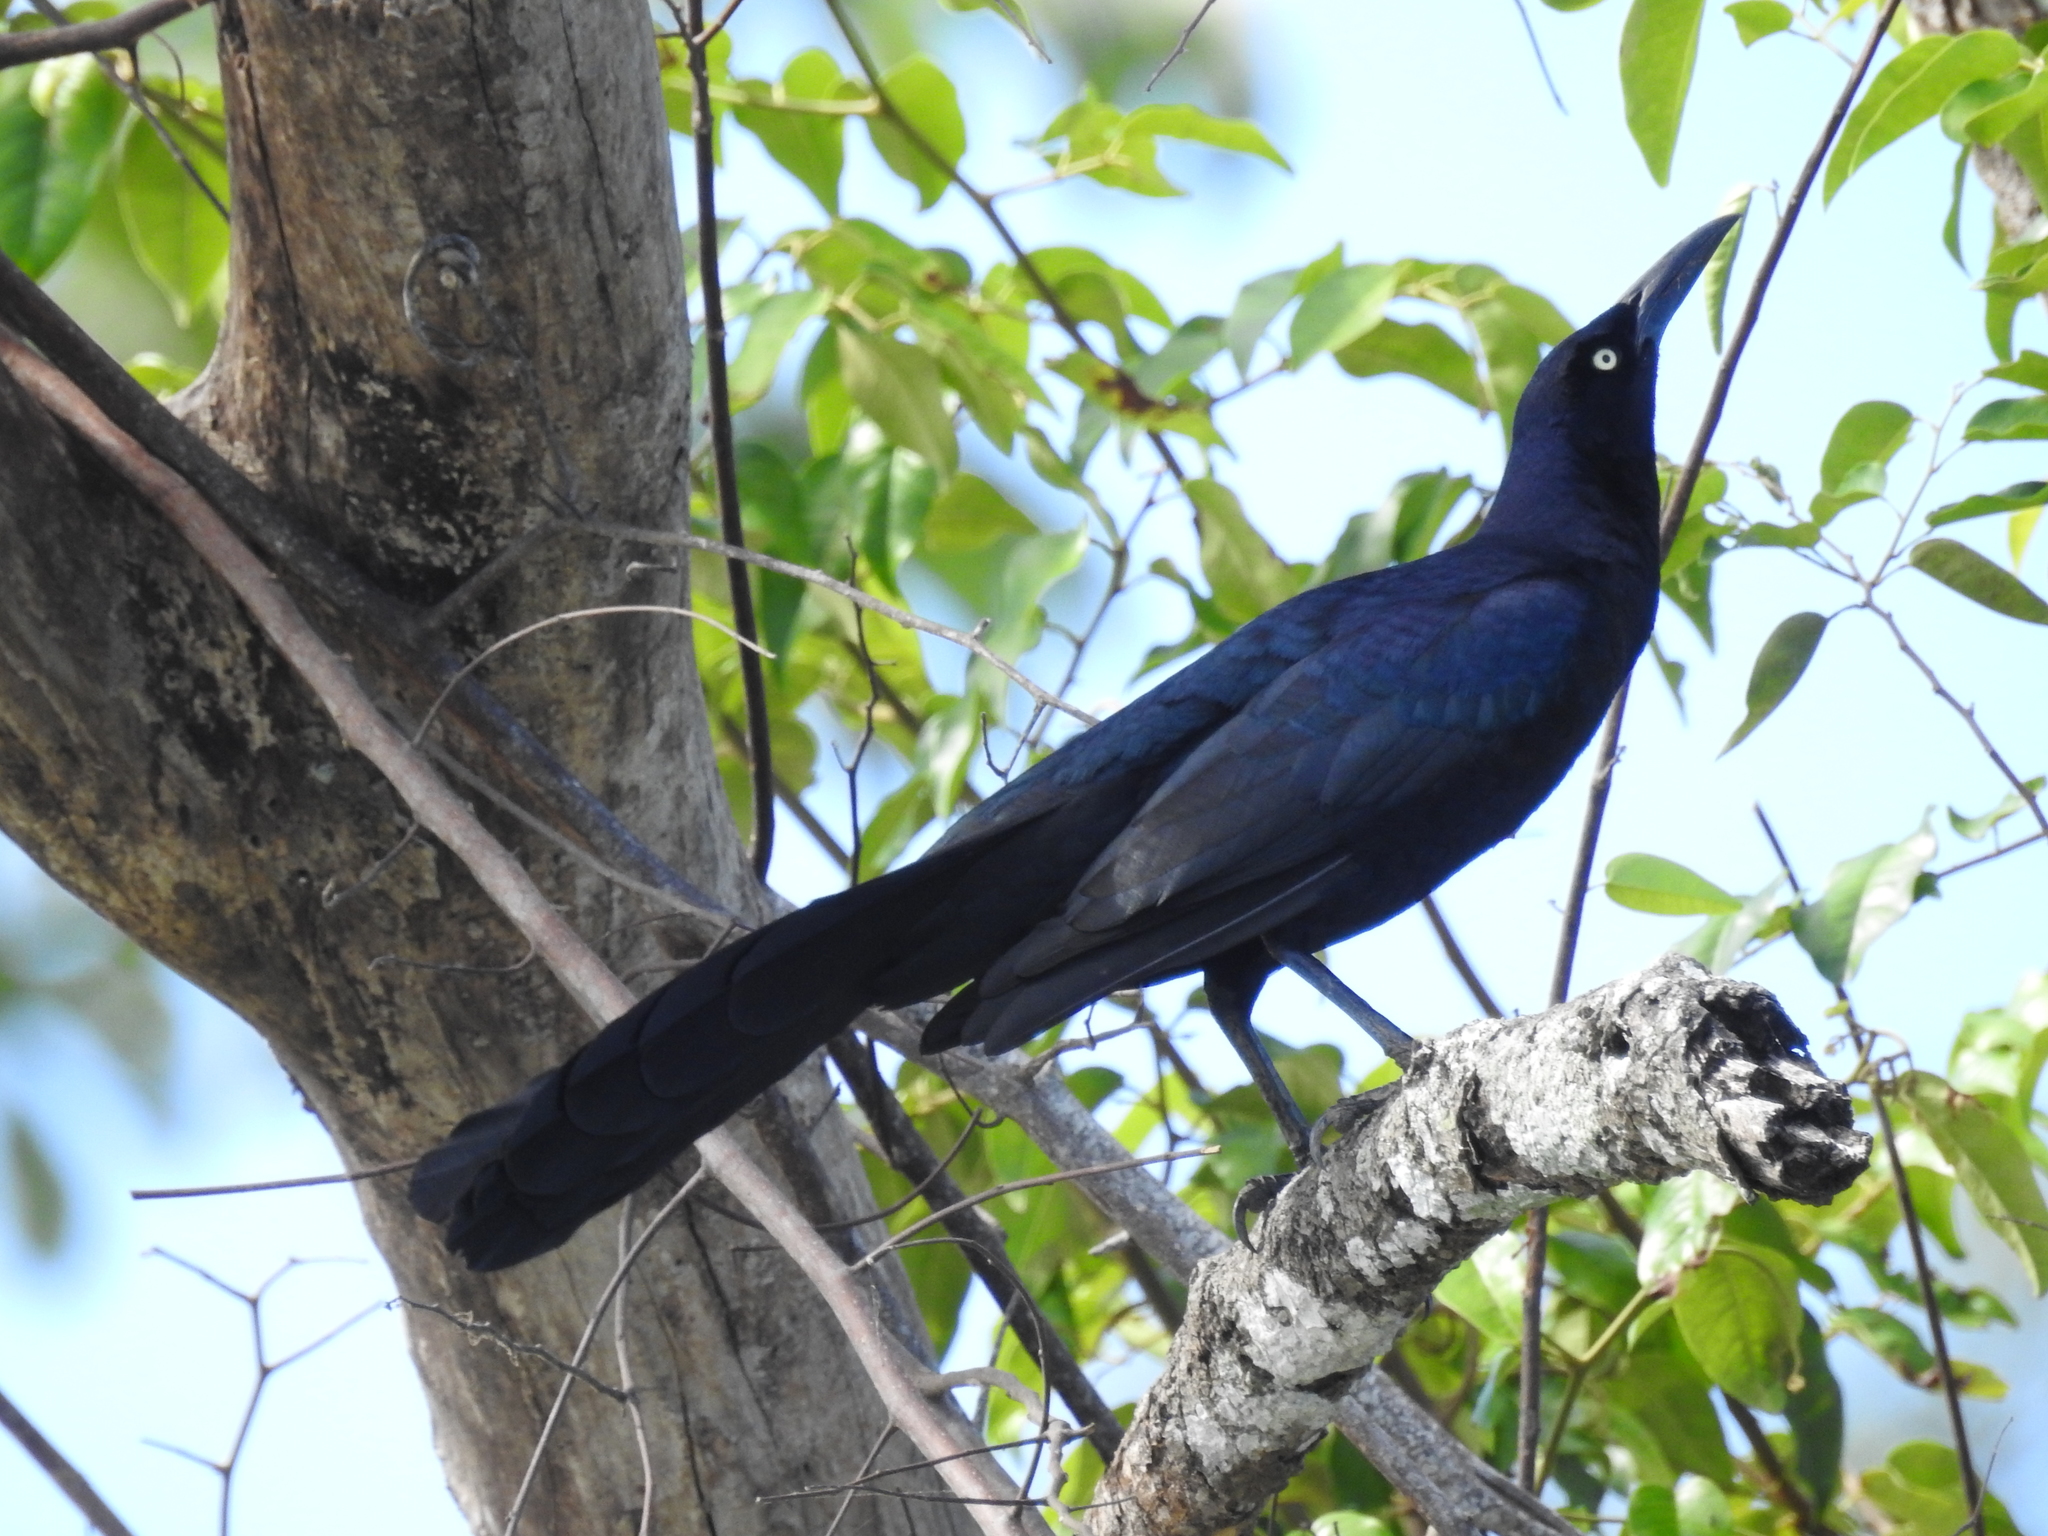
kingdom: Animalia
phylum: Chordata
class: Aves
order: Passeriformes
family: Icteridae
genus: Quiscalus
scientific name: Quiscalus mexicanus
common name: Great-tailed grackle
